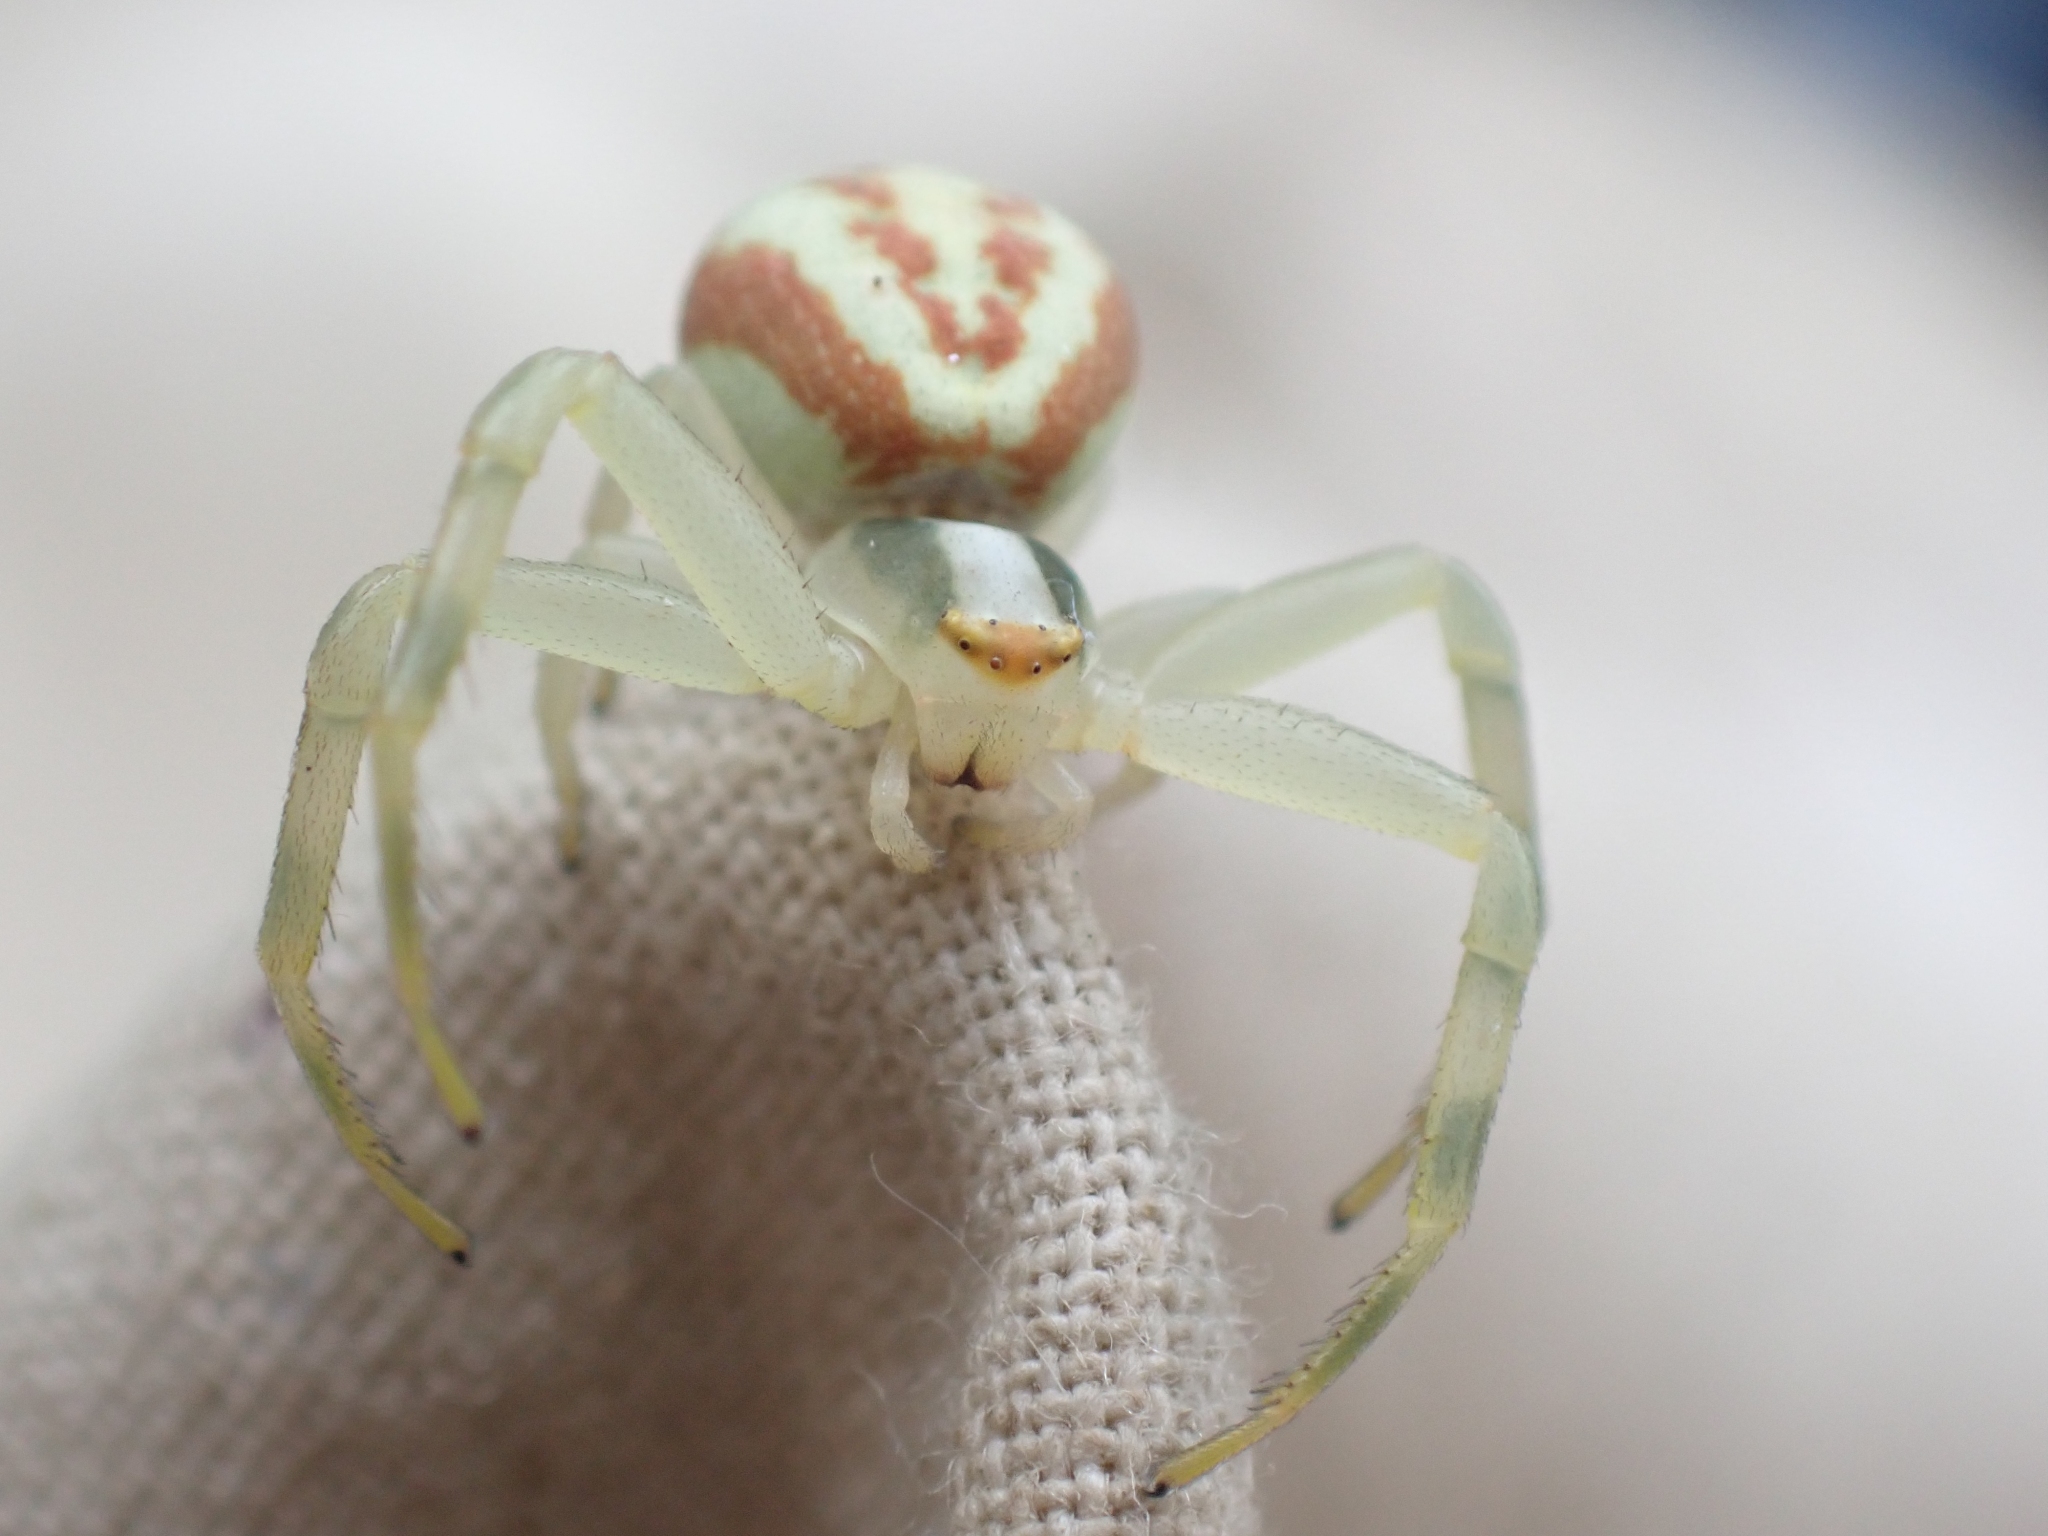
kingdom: Animalia
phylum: Arthropoda
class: Arachnida
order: Araneae
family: Thomisidae
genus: Misumena
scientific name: Misumena vatia
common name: Goldenrod crab spider
